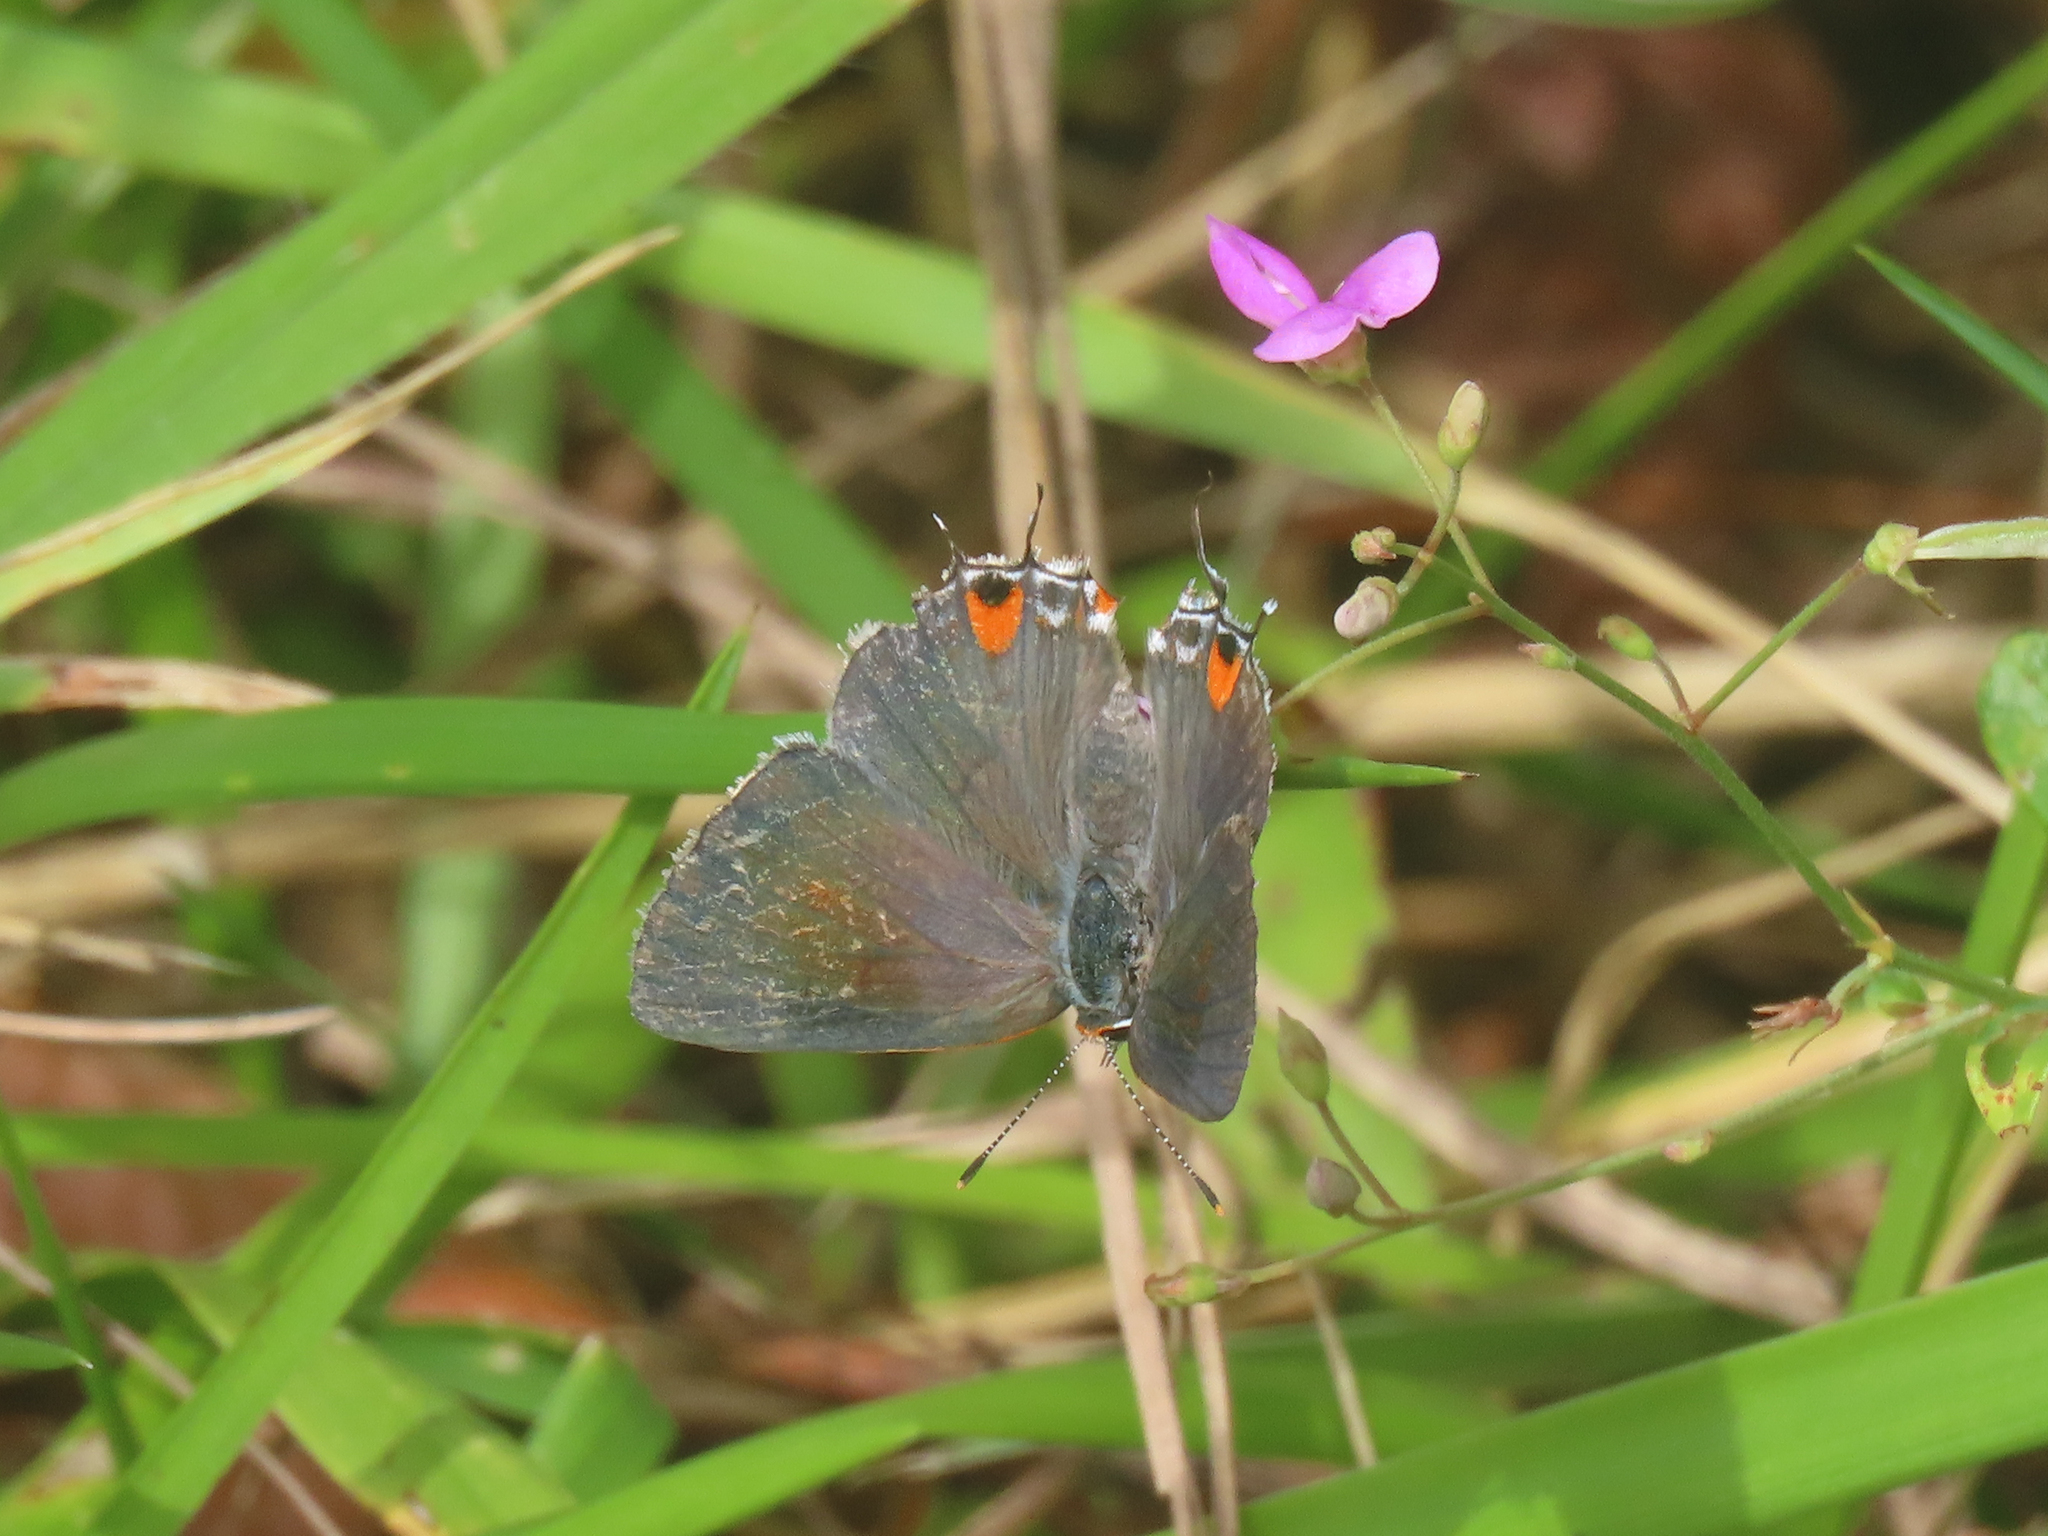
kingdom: Animalia
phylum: Arthropoda
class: Insecta
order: Lepidoptera
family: Lycaenidae
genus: Strymon
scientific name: Strymon melinus
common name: Gray hairstreak
